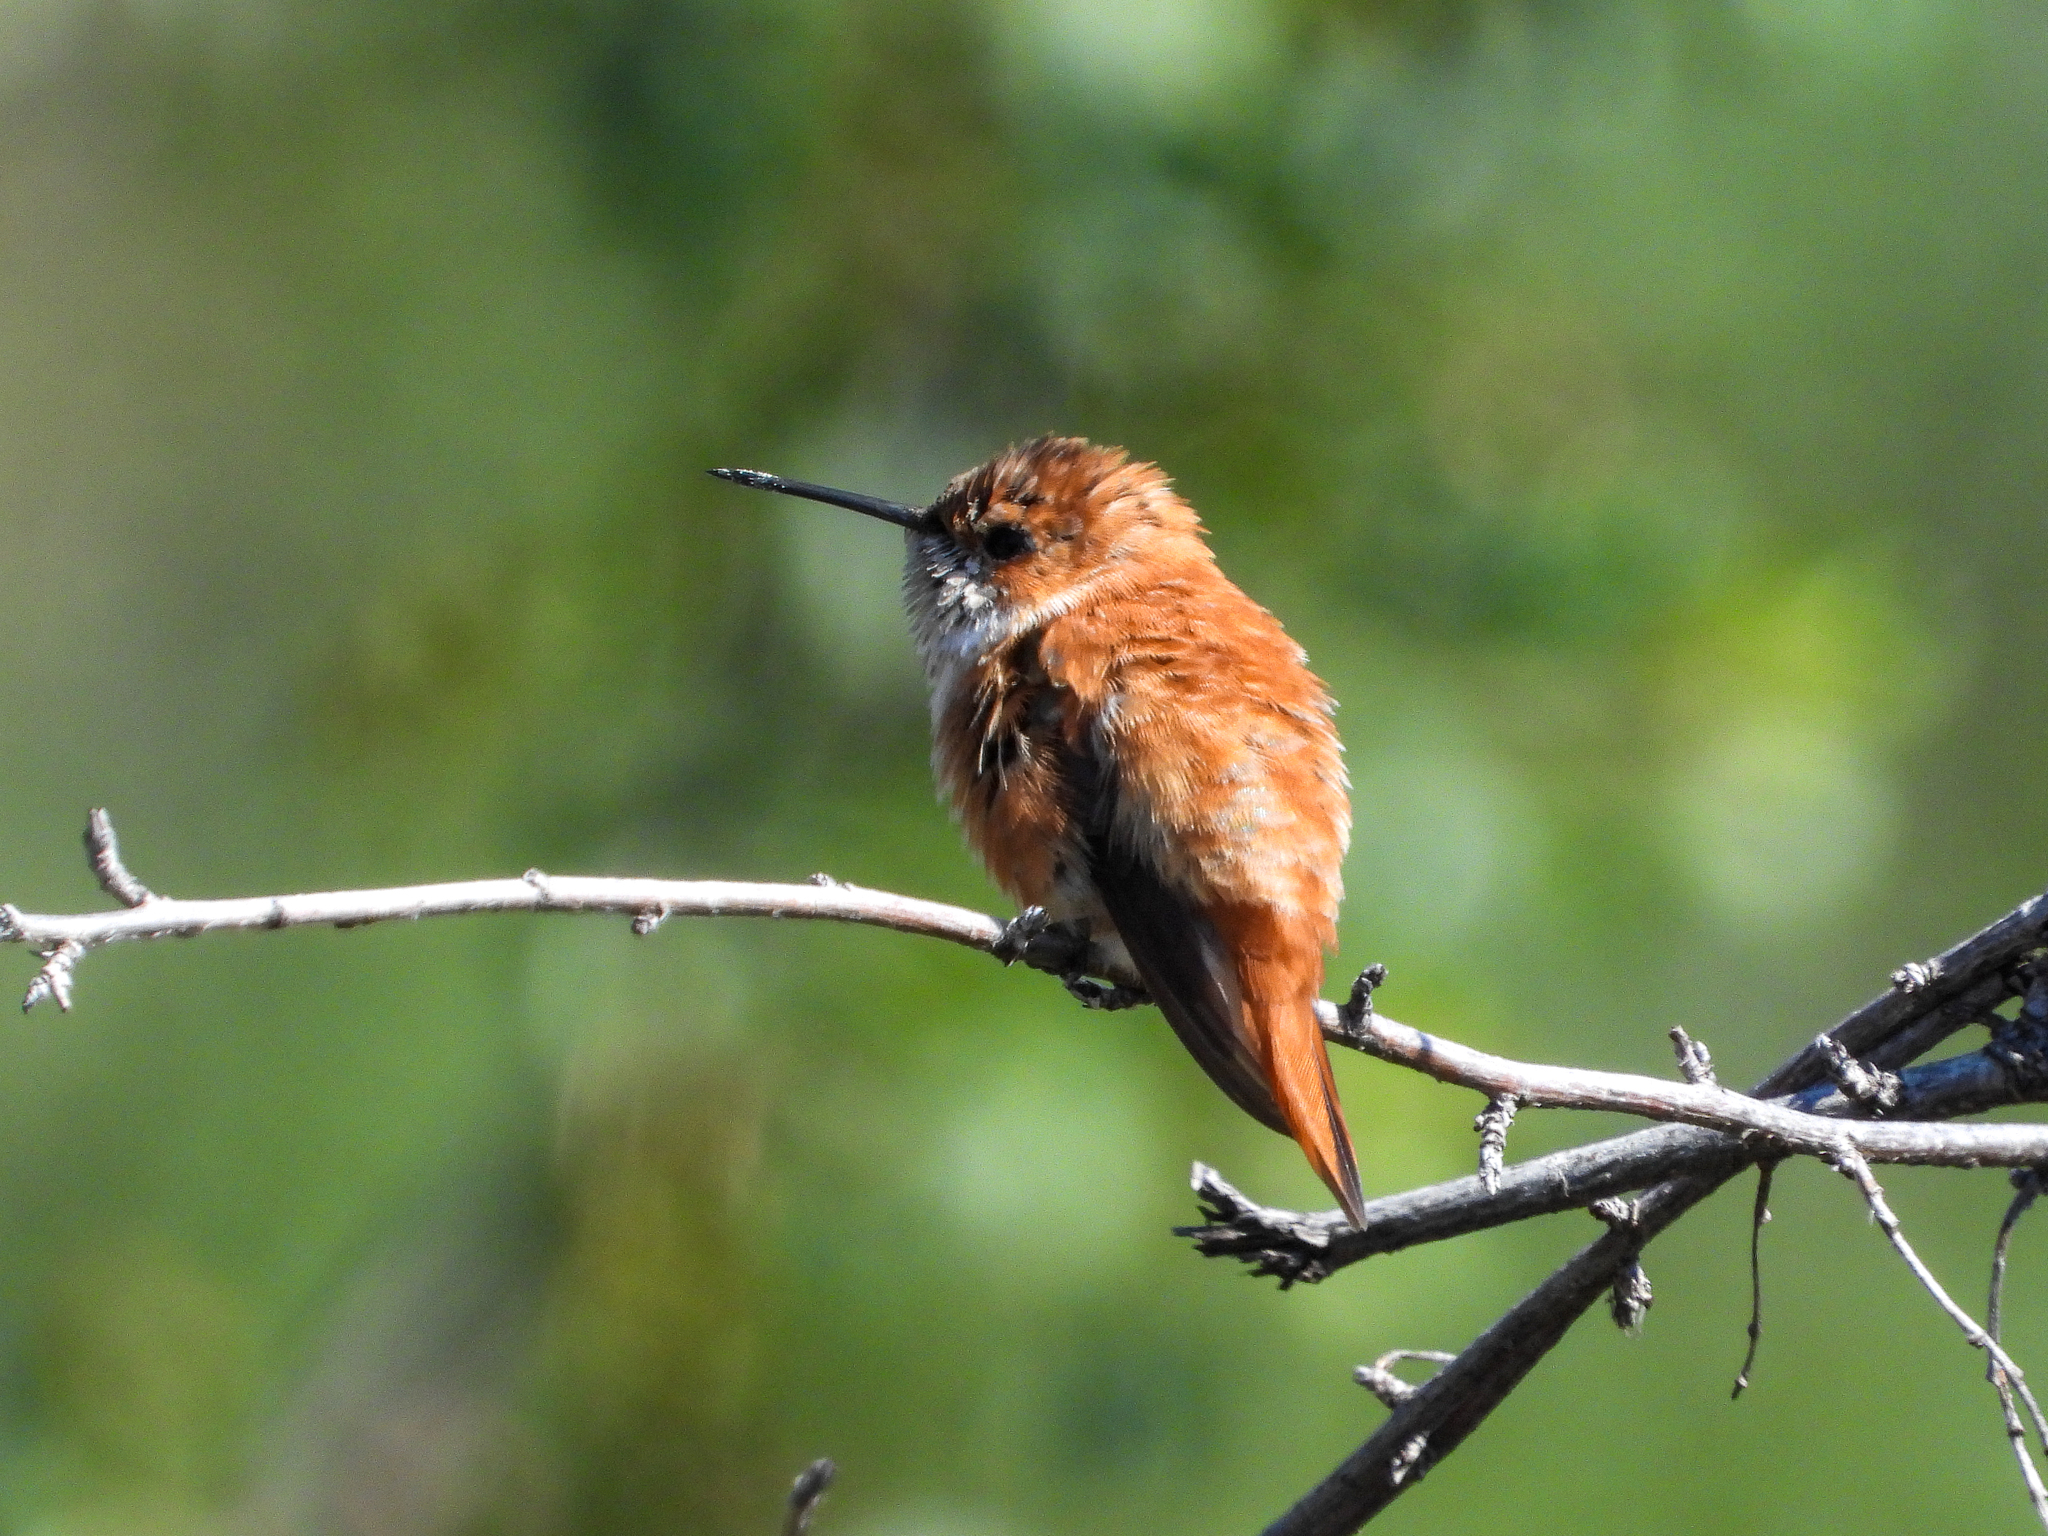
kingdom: Animalia
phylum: Chordata
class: Aves
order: Apodiformes
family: Trochilidae
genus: Selasphorus
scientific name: Selasphorus rufus
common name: Rufous hummingbird
